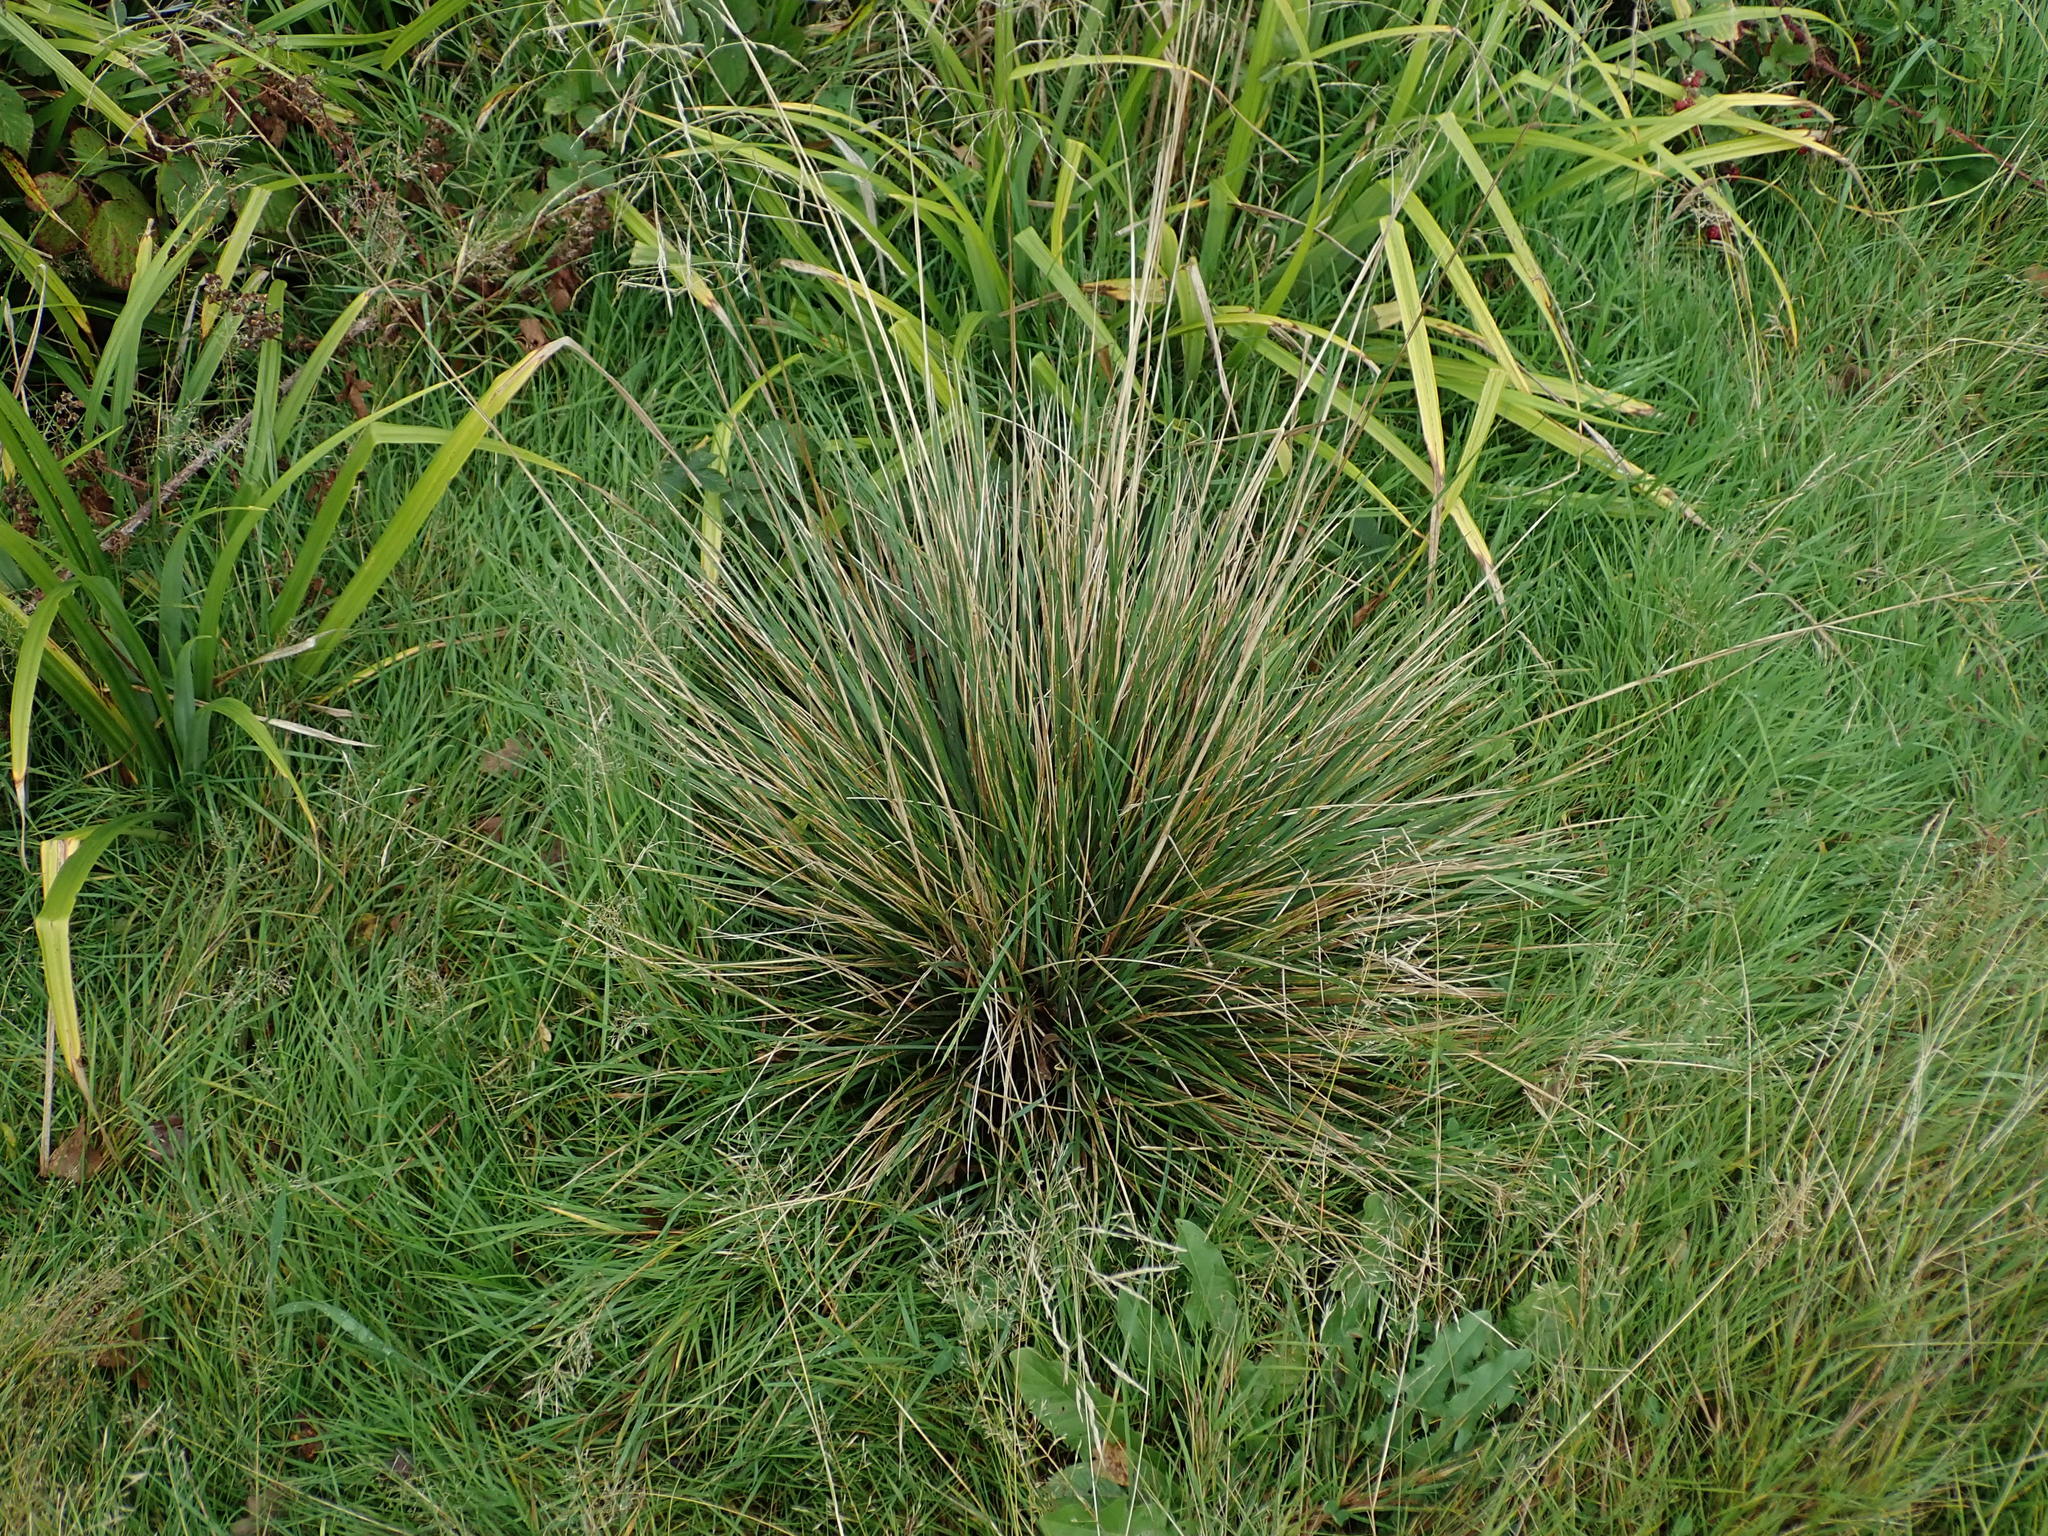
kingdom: Plantae
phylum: Tracheophyta
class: Liliopsida
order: Poales
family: Poaceae
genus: Deschampsia
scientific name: Deschampsia cespitosa
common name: Tufted hair-grass
